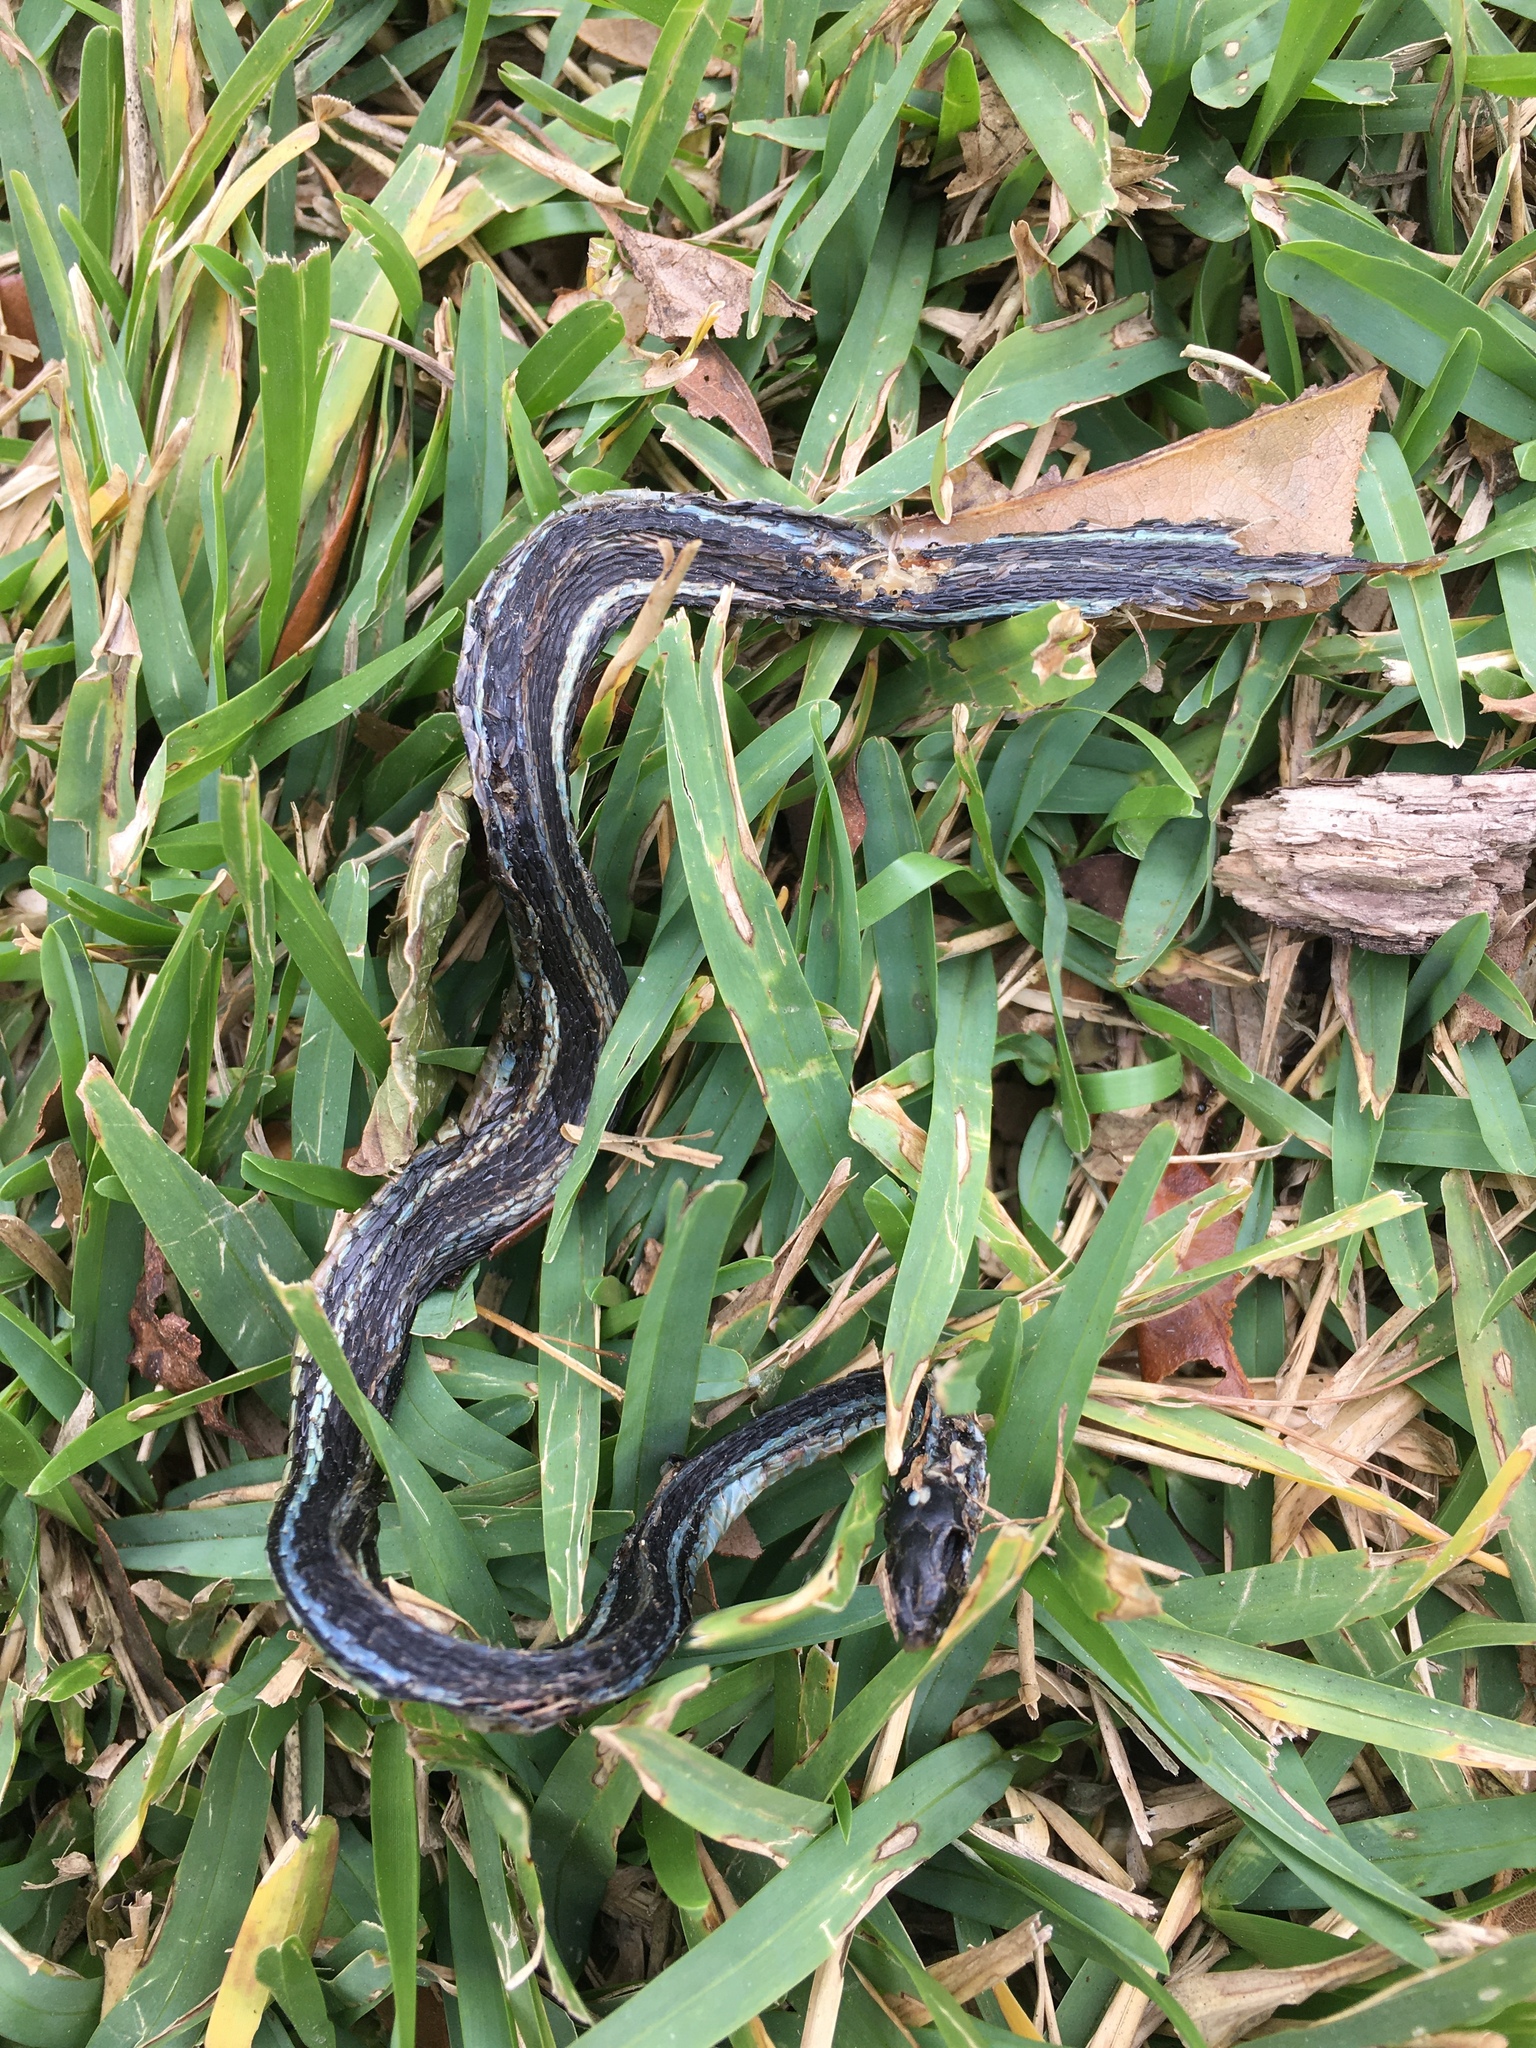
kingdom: Animalia
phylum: Chordata
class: Squamata
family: Colubridae
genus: Thamnophis
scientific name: Thamnophis proximus
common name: Western ribbon snake
